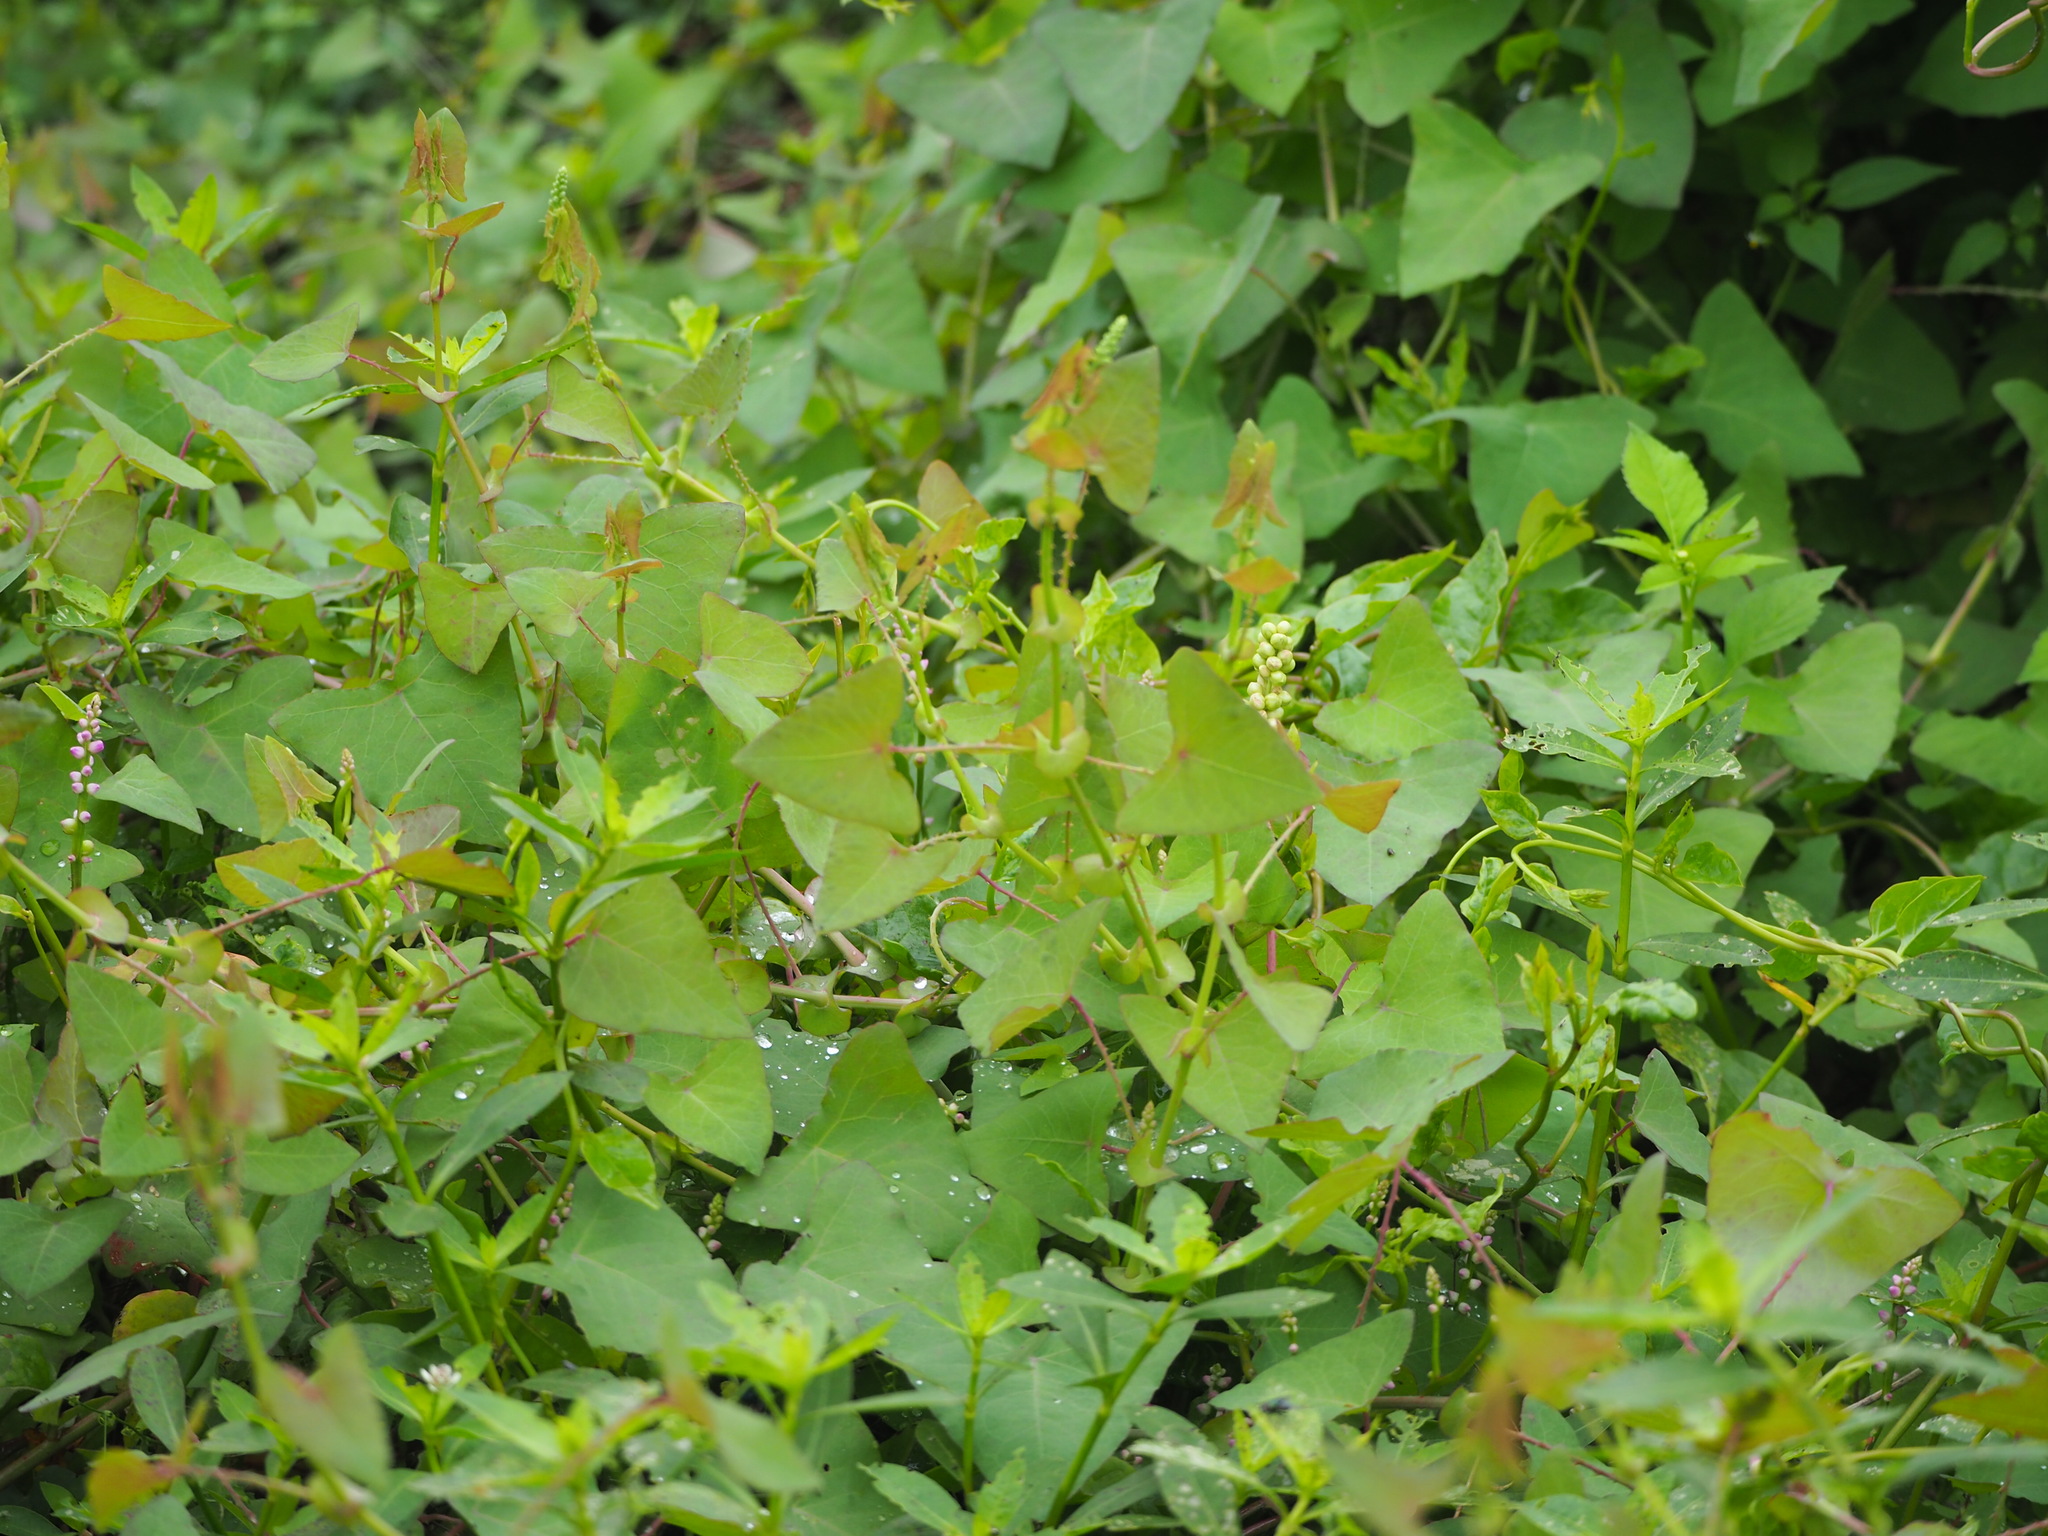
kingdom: Plantae
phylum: Tracheophyta
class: Magnoliopsida
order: Caryophyllales
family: Polygonaceae
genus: Persicaria
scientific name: Persicaria perfoliata
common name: Asiatic tearthumb
